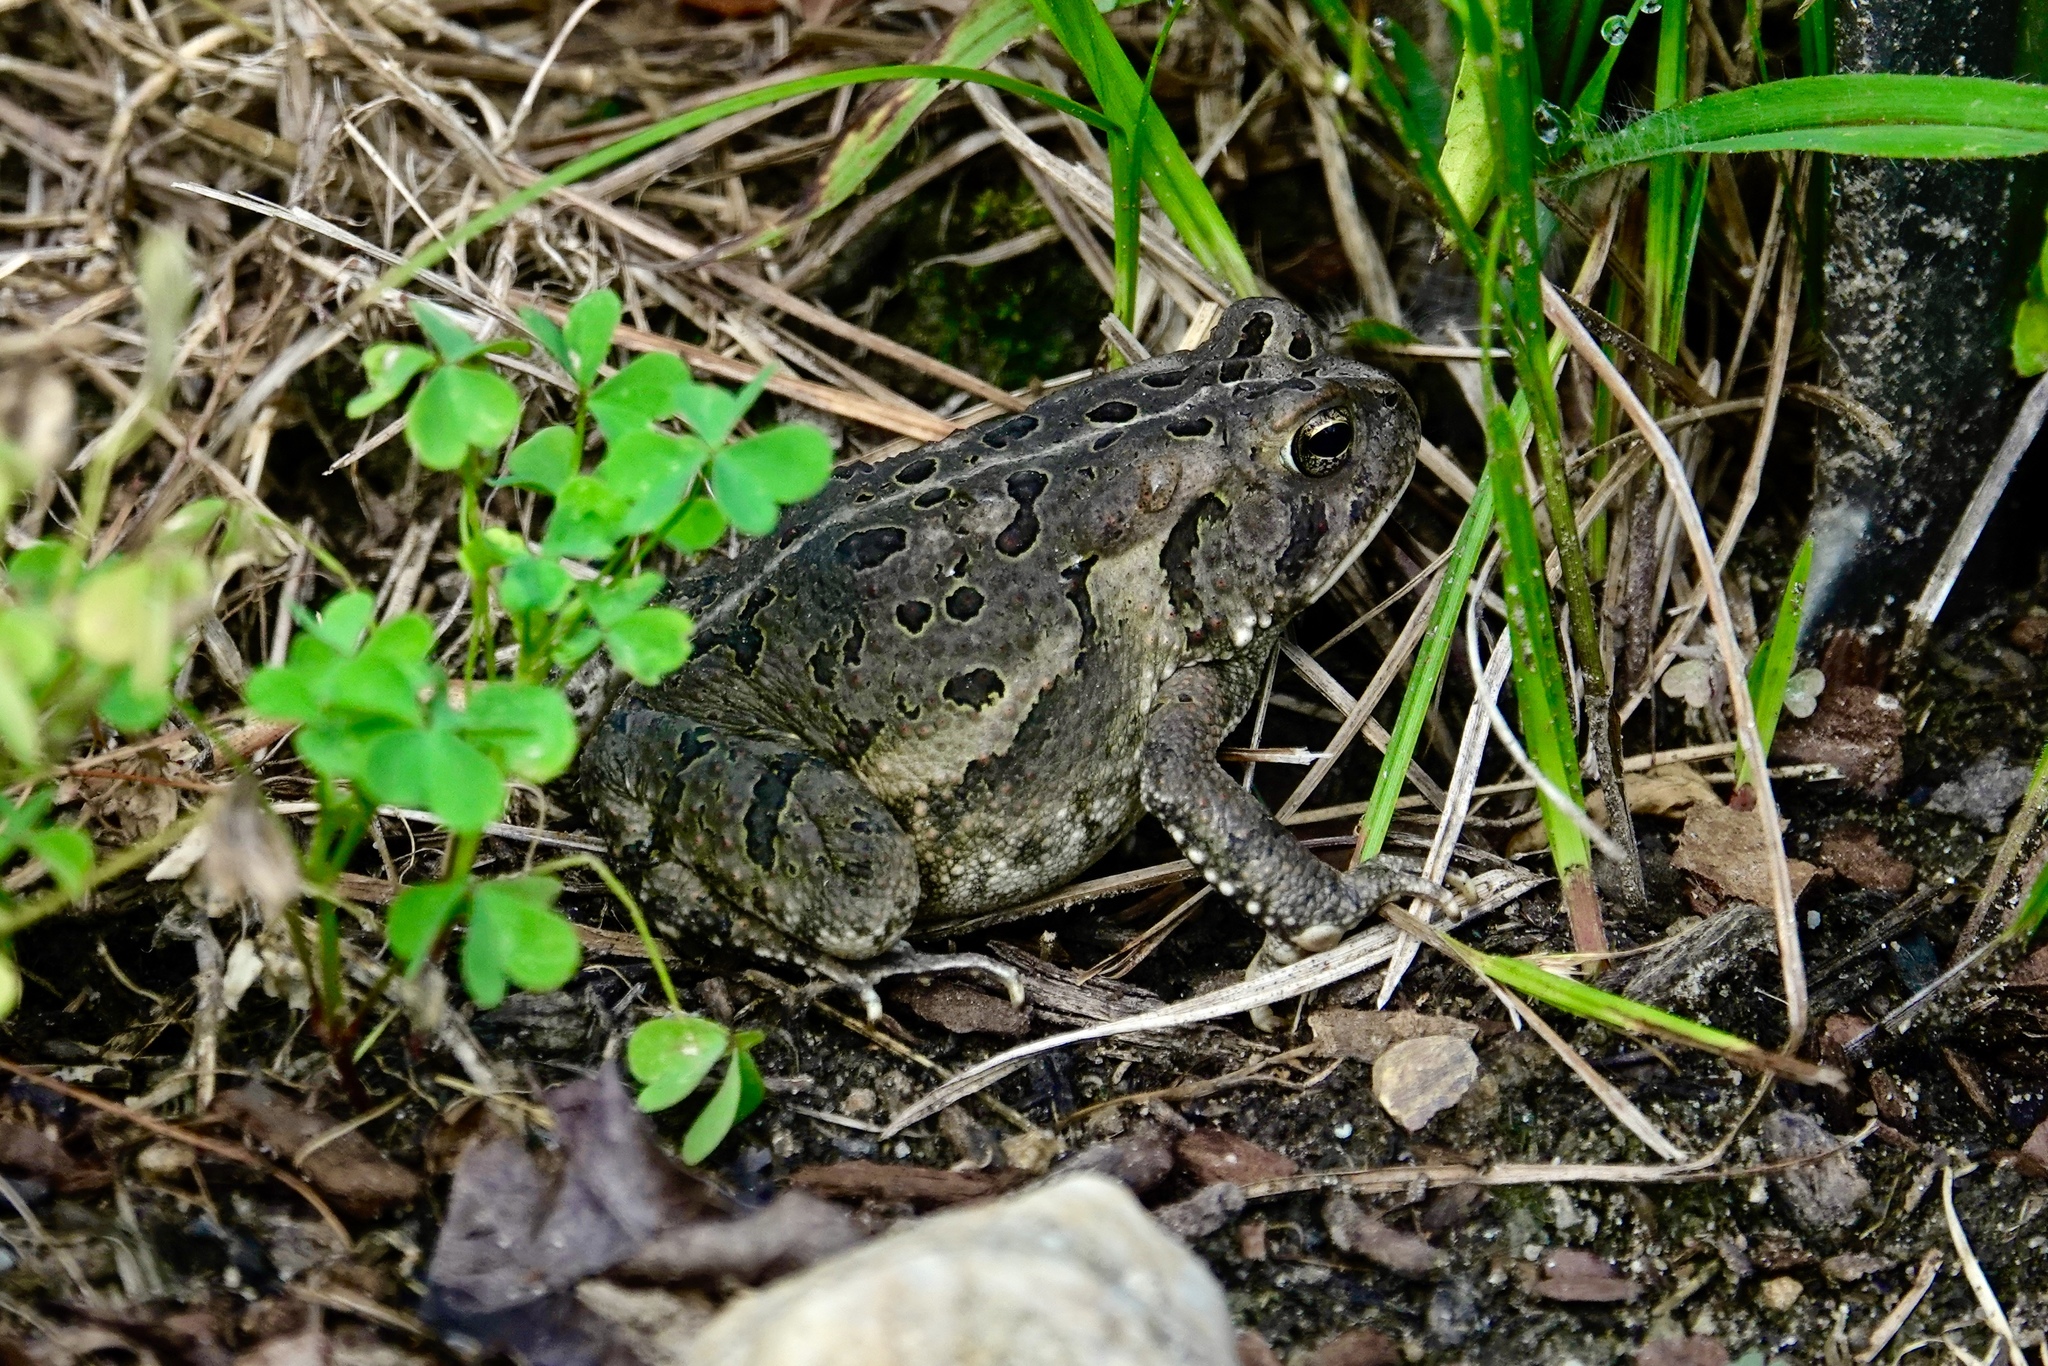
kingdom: Animalia
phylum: Chordata
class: Amphibia
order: Anura
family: Bufonidae
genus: Anaxyrus
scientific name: Anaxyrus fowleri
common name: Fowler's toad
